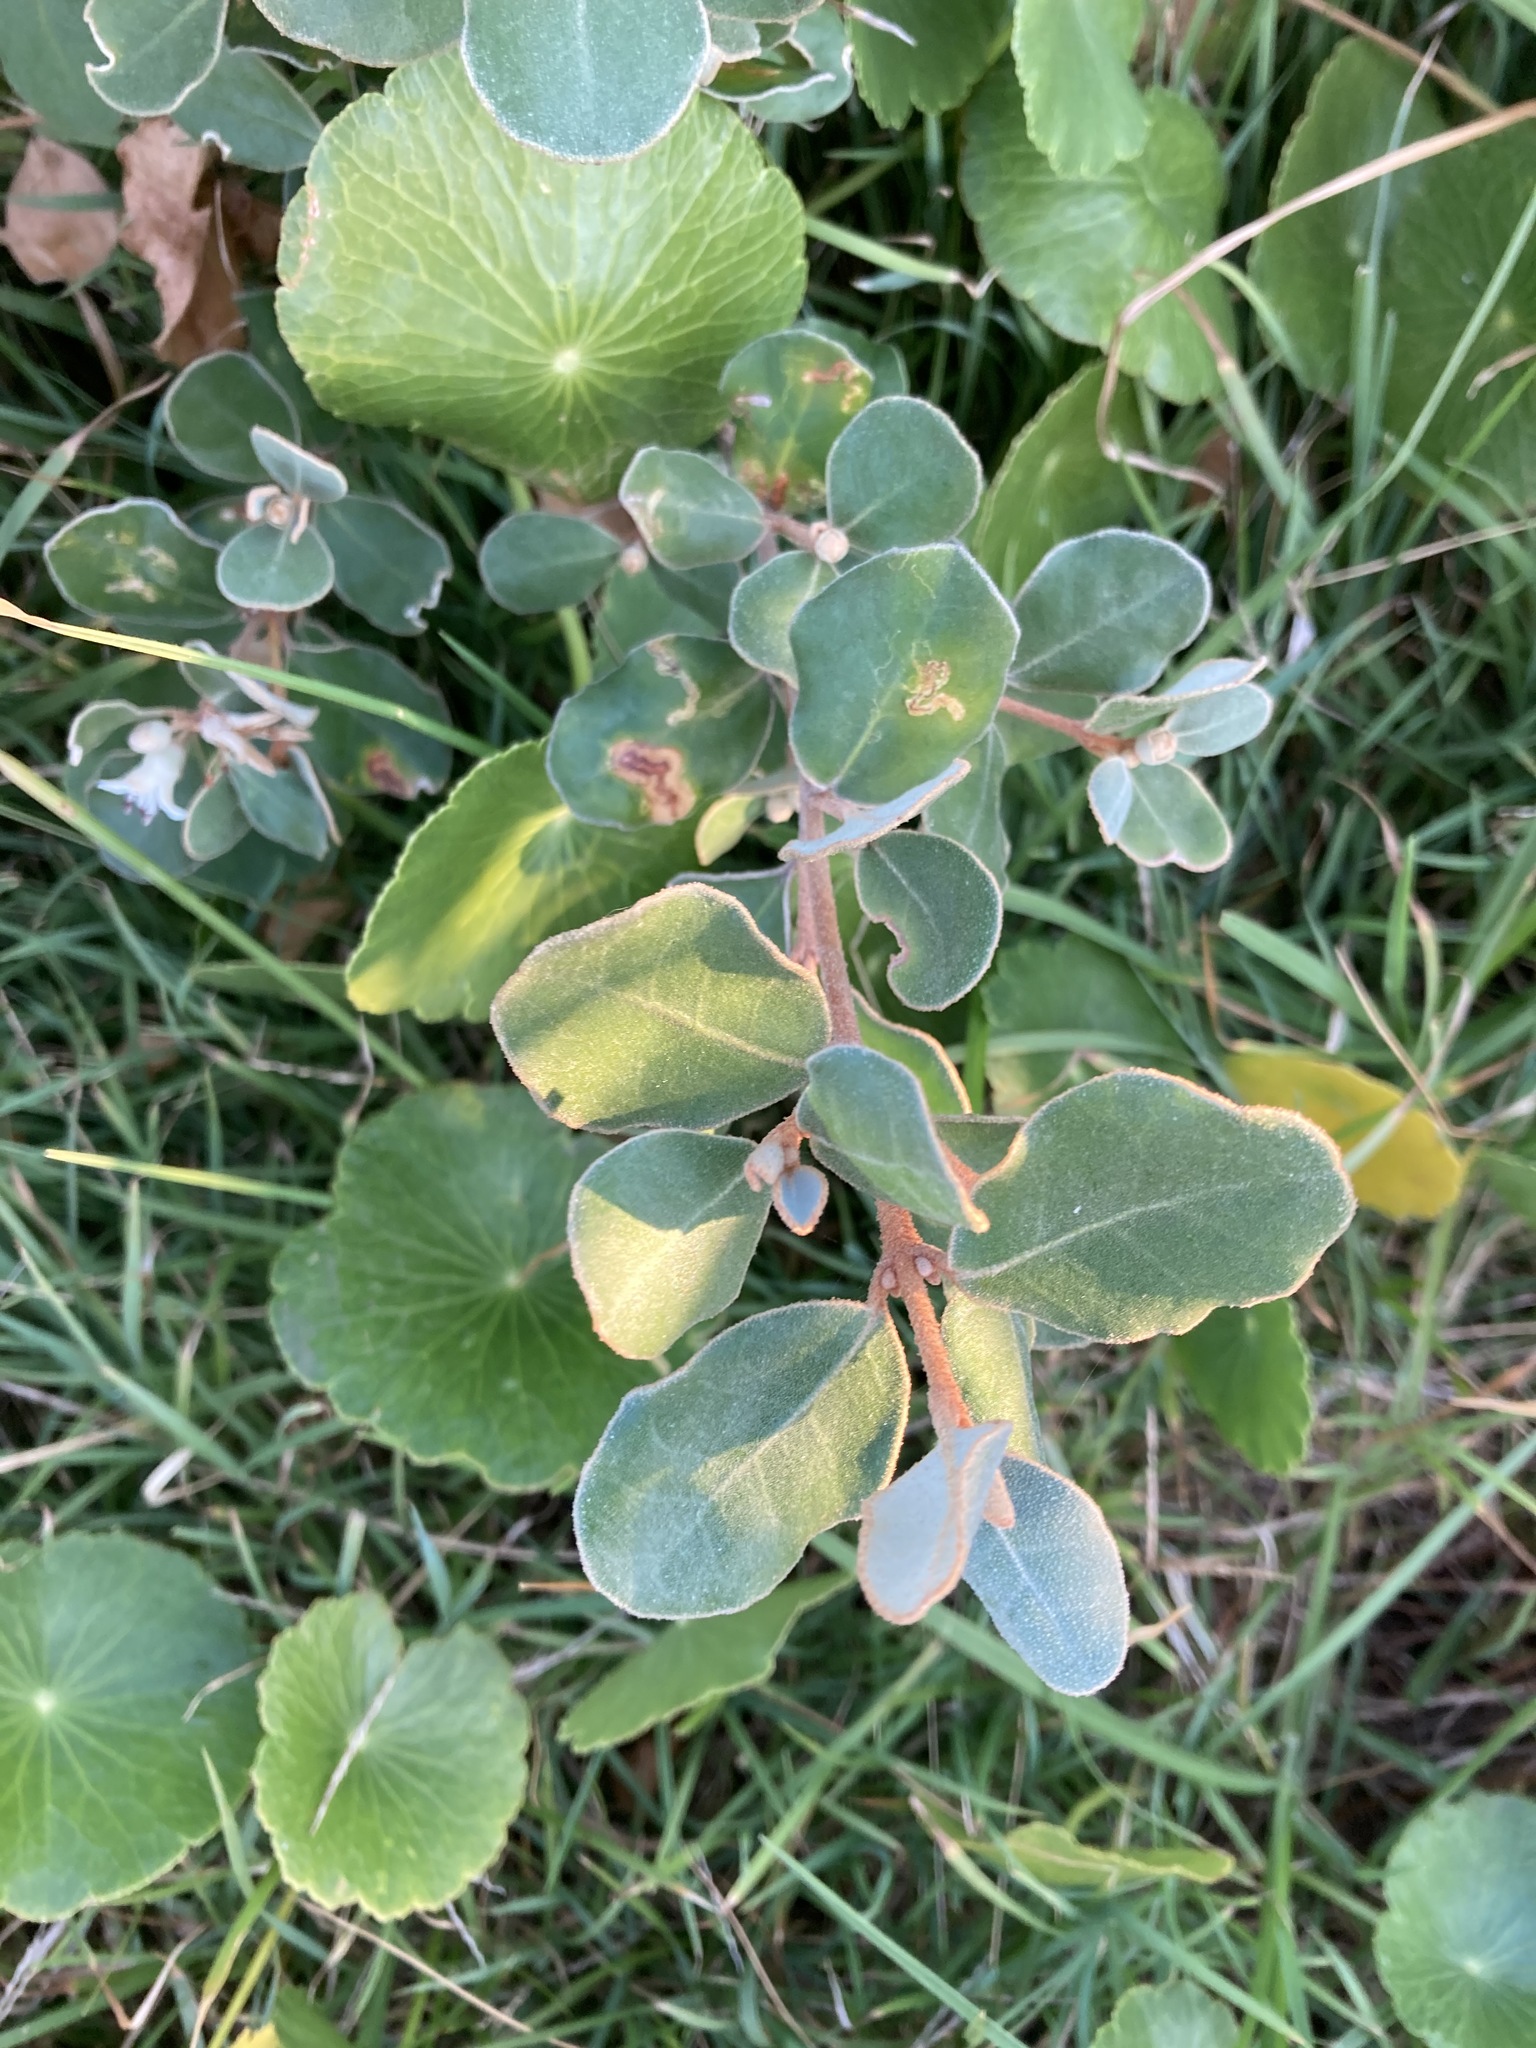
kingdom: Plantae
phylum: Tracheophyta
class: Magnoliopsida
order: Sapindales
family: Rutaceae
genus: Correa
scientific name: Correa alba
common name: White correa
